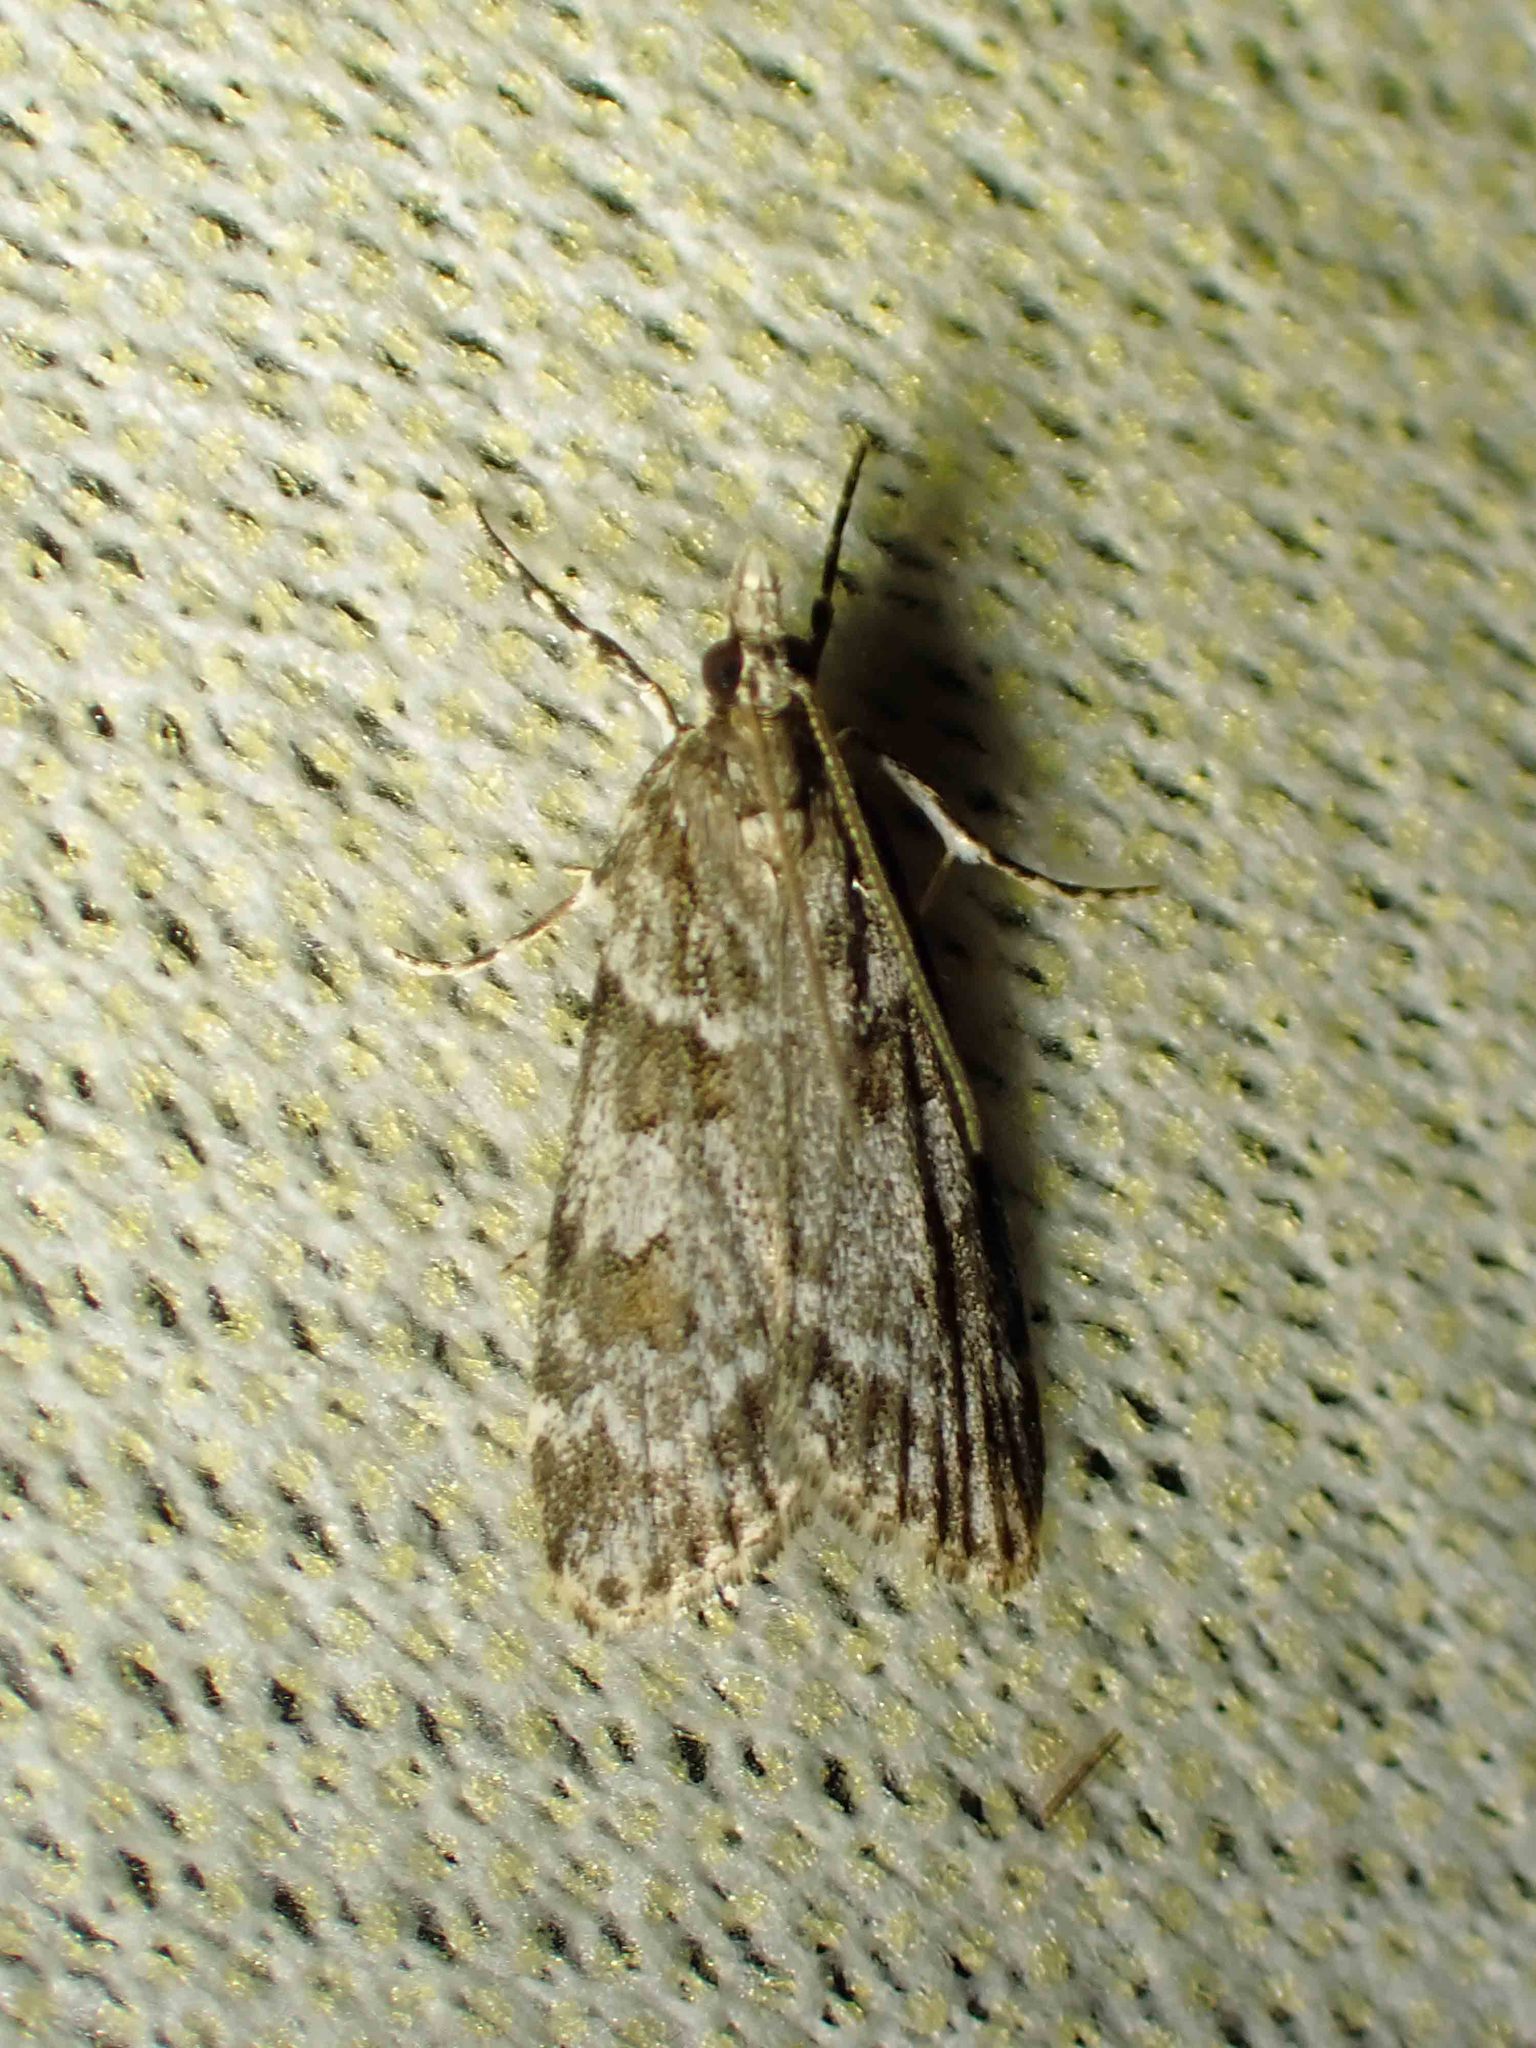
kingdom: Animalia
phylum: Arthropoda
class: Insecta
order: Lepidoptera
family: Crambidae
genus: Scoparia
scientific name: Scoparia biplagialis
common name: Double-striped scoparia moth
